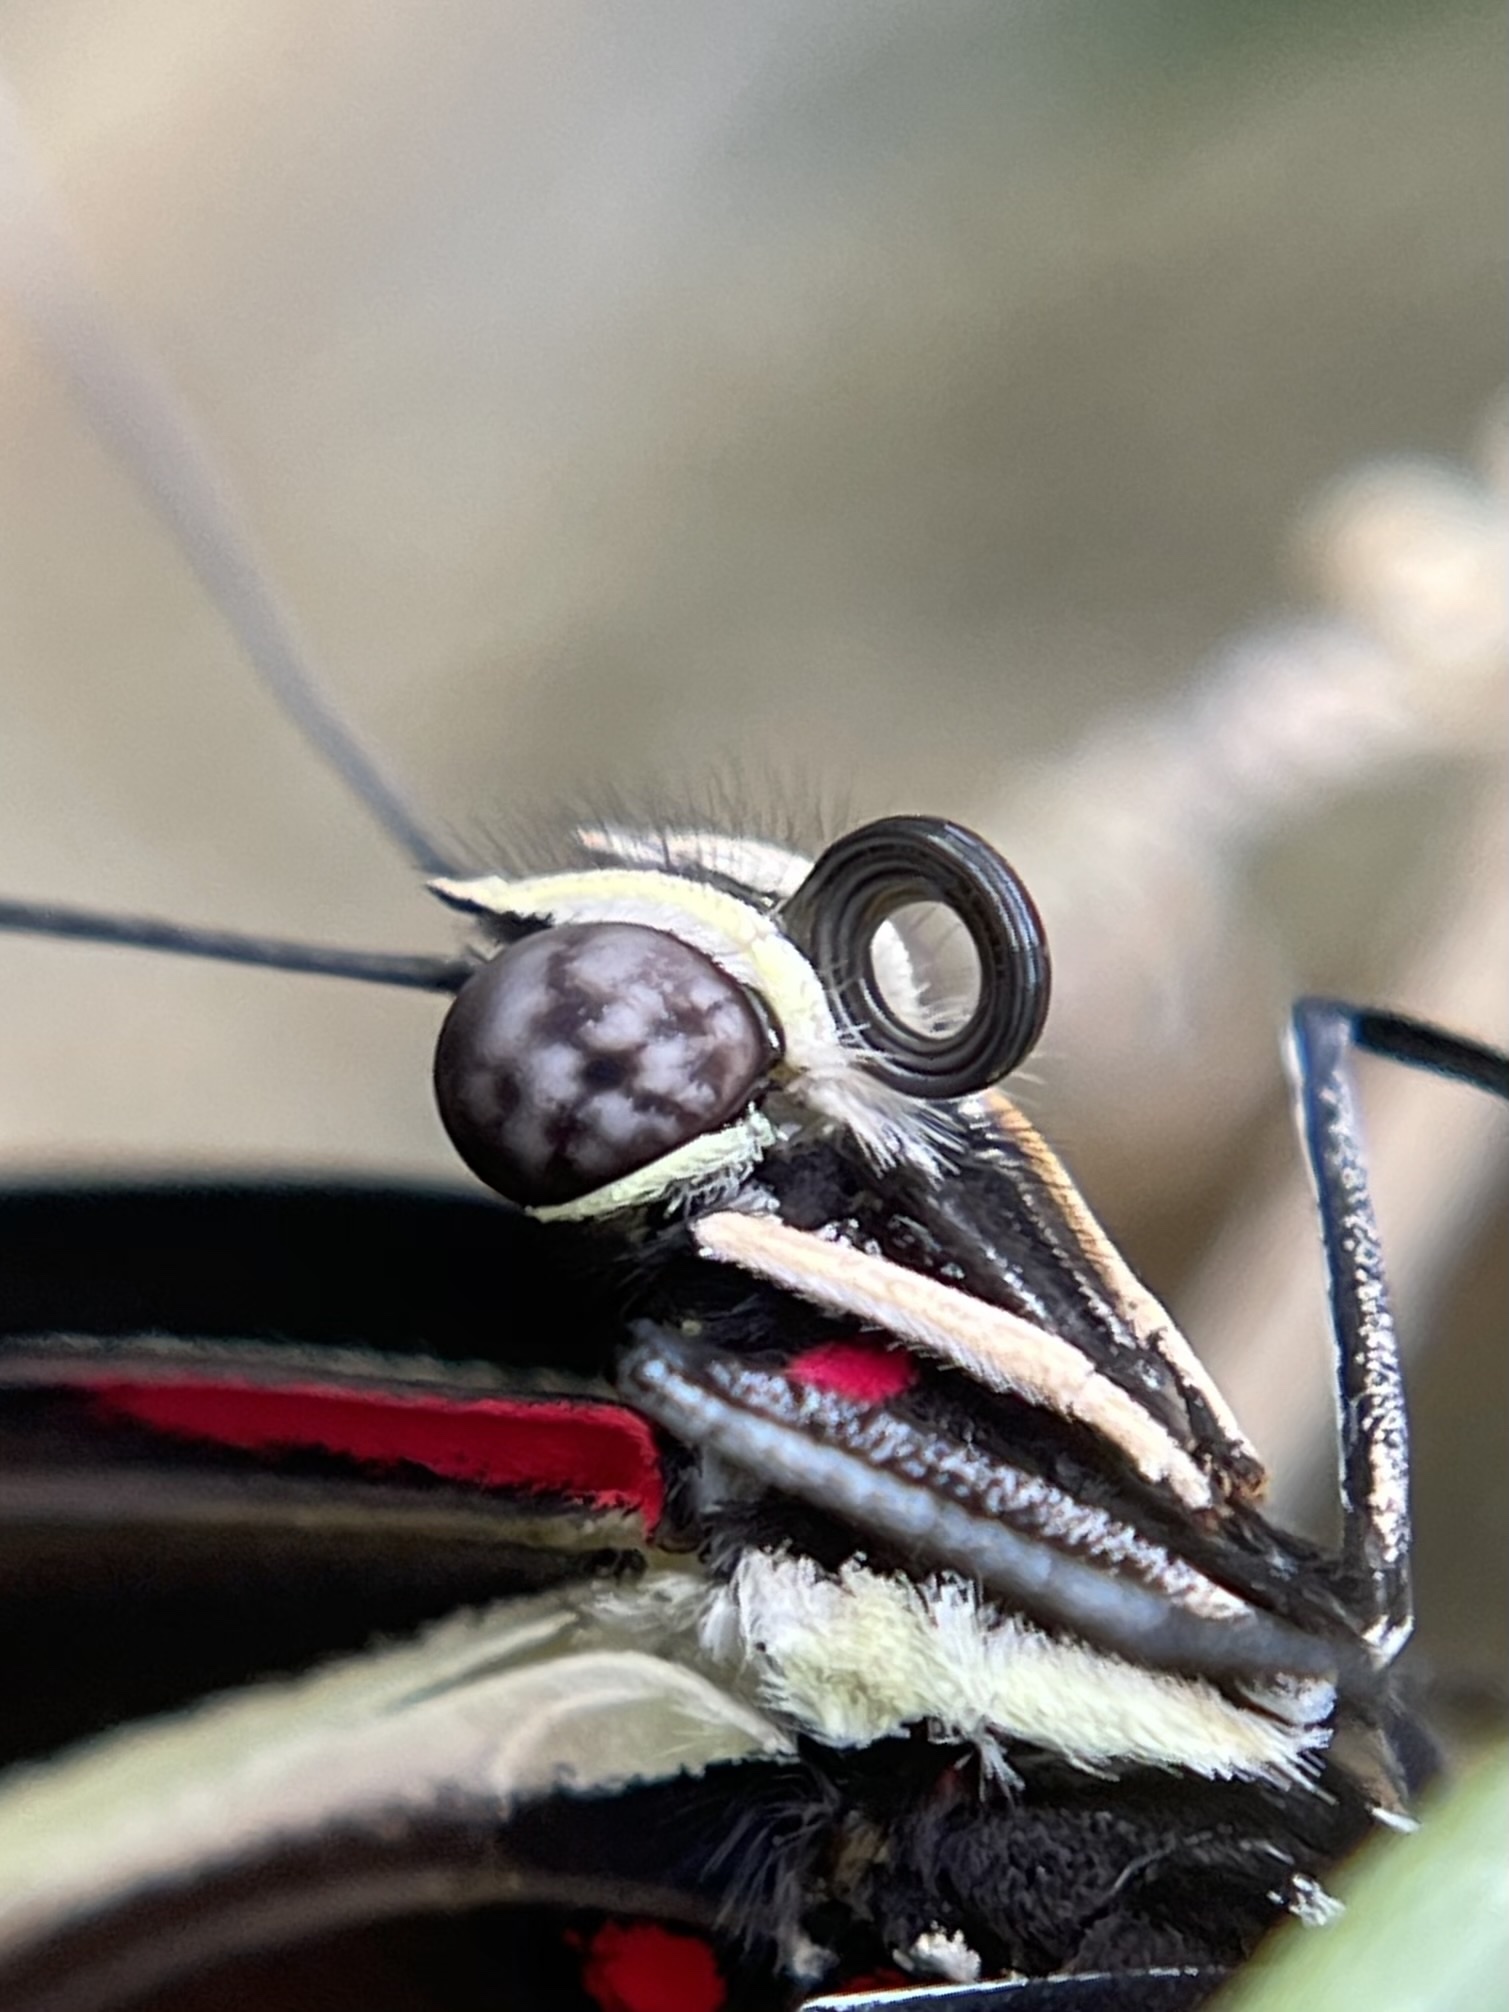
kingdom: Animalia
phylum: Arthropoda
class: Insecta
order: Lepidoptera
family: Nymphalidae
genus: Heliconius
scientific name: Heliconius charithonia
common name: Zebra long wing
